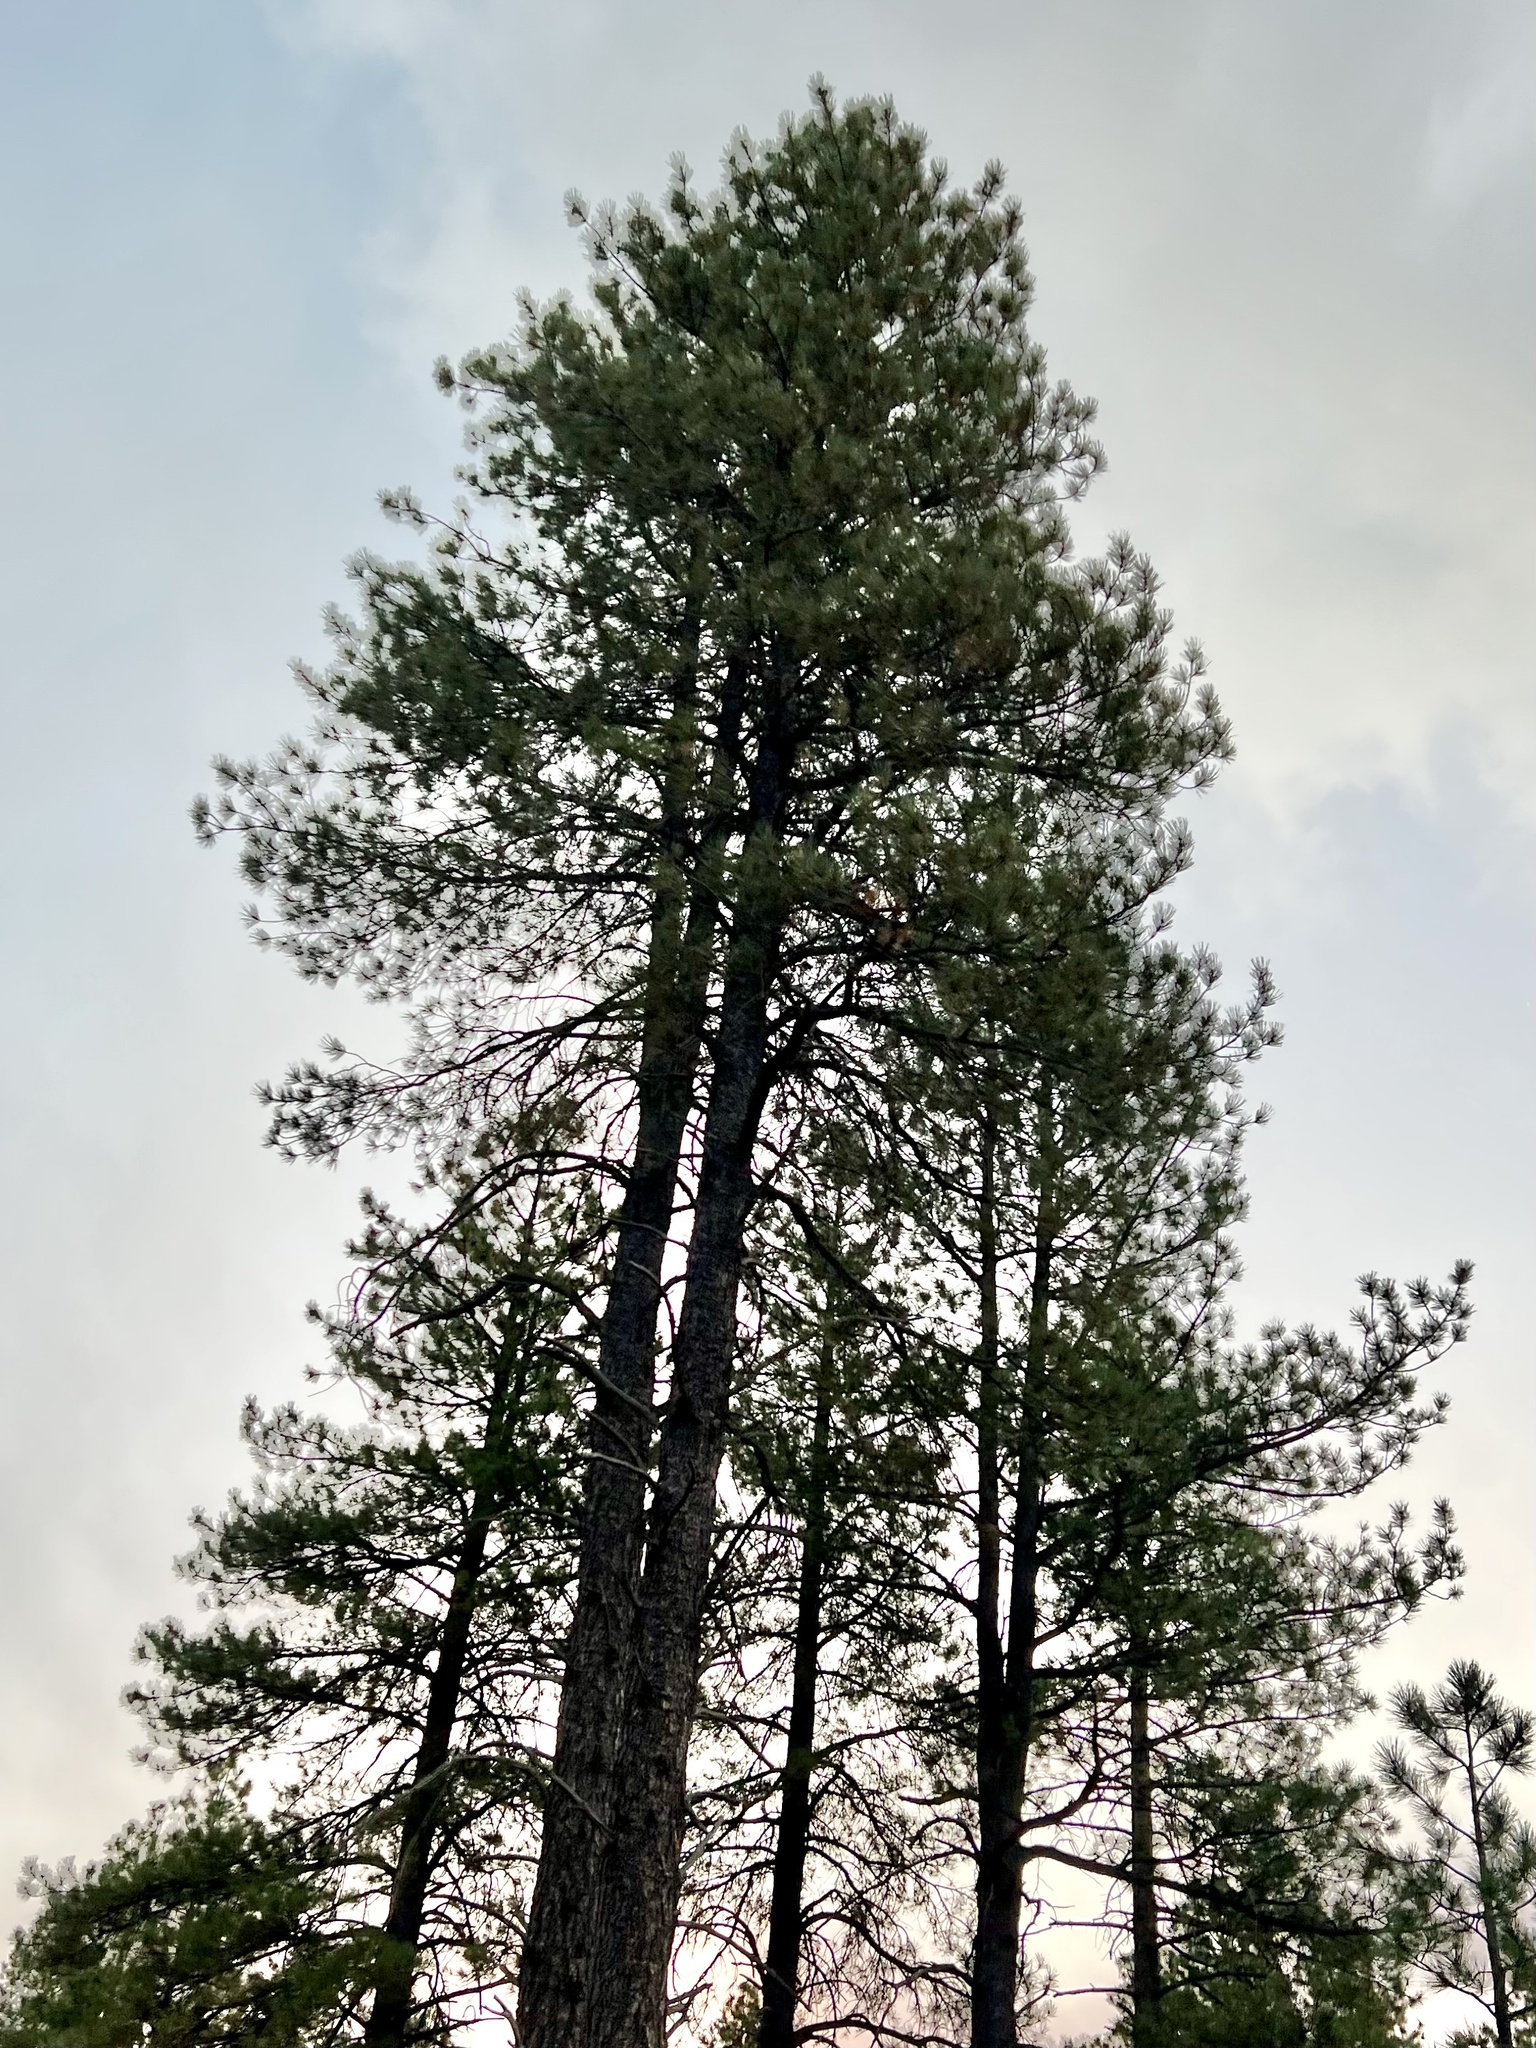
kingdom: Plantae
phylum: Tracheophyta
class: Pinopsida
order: Pinales
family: Pinaceae
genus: Pinus
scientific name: Pinus ponderosa
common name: Western yellow-pine
